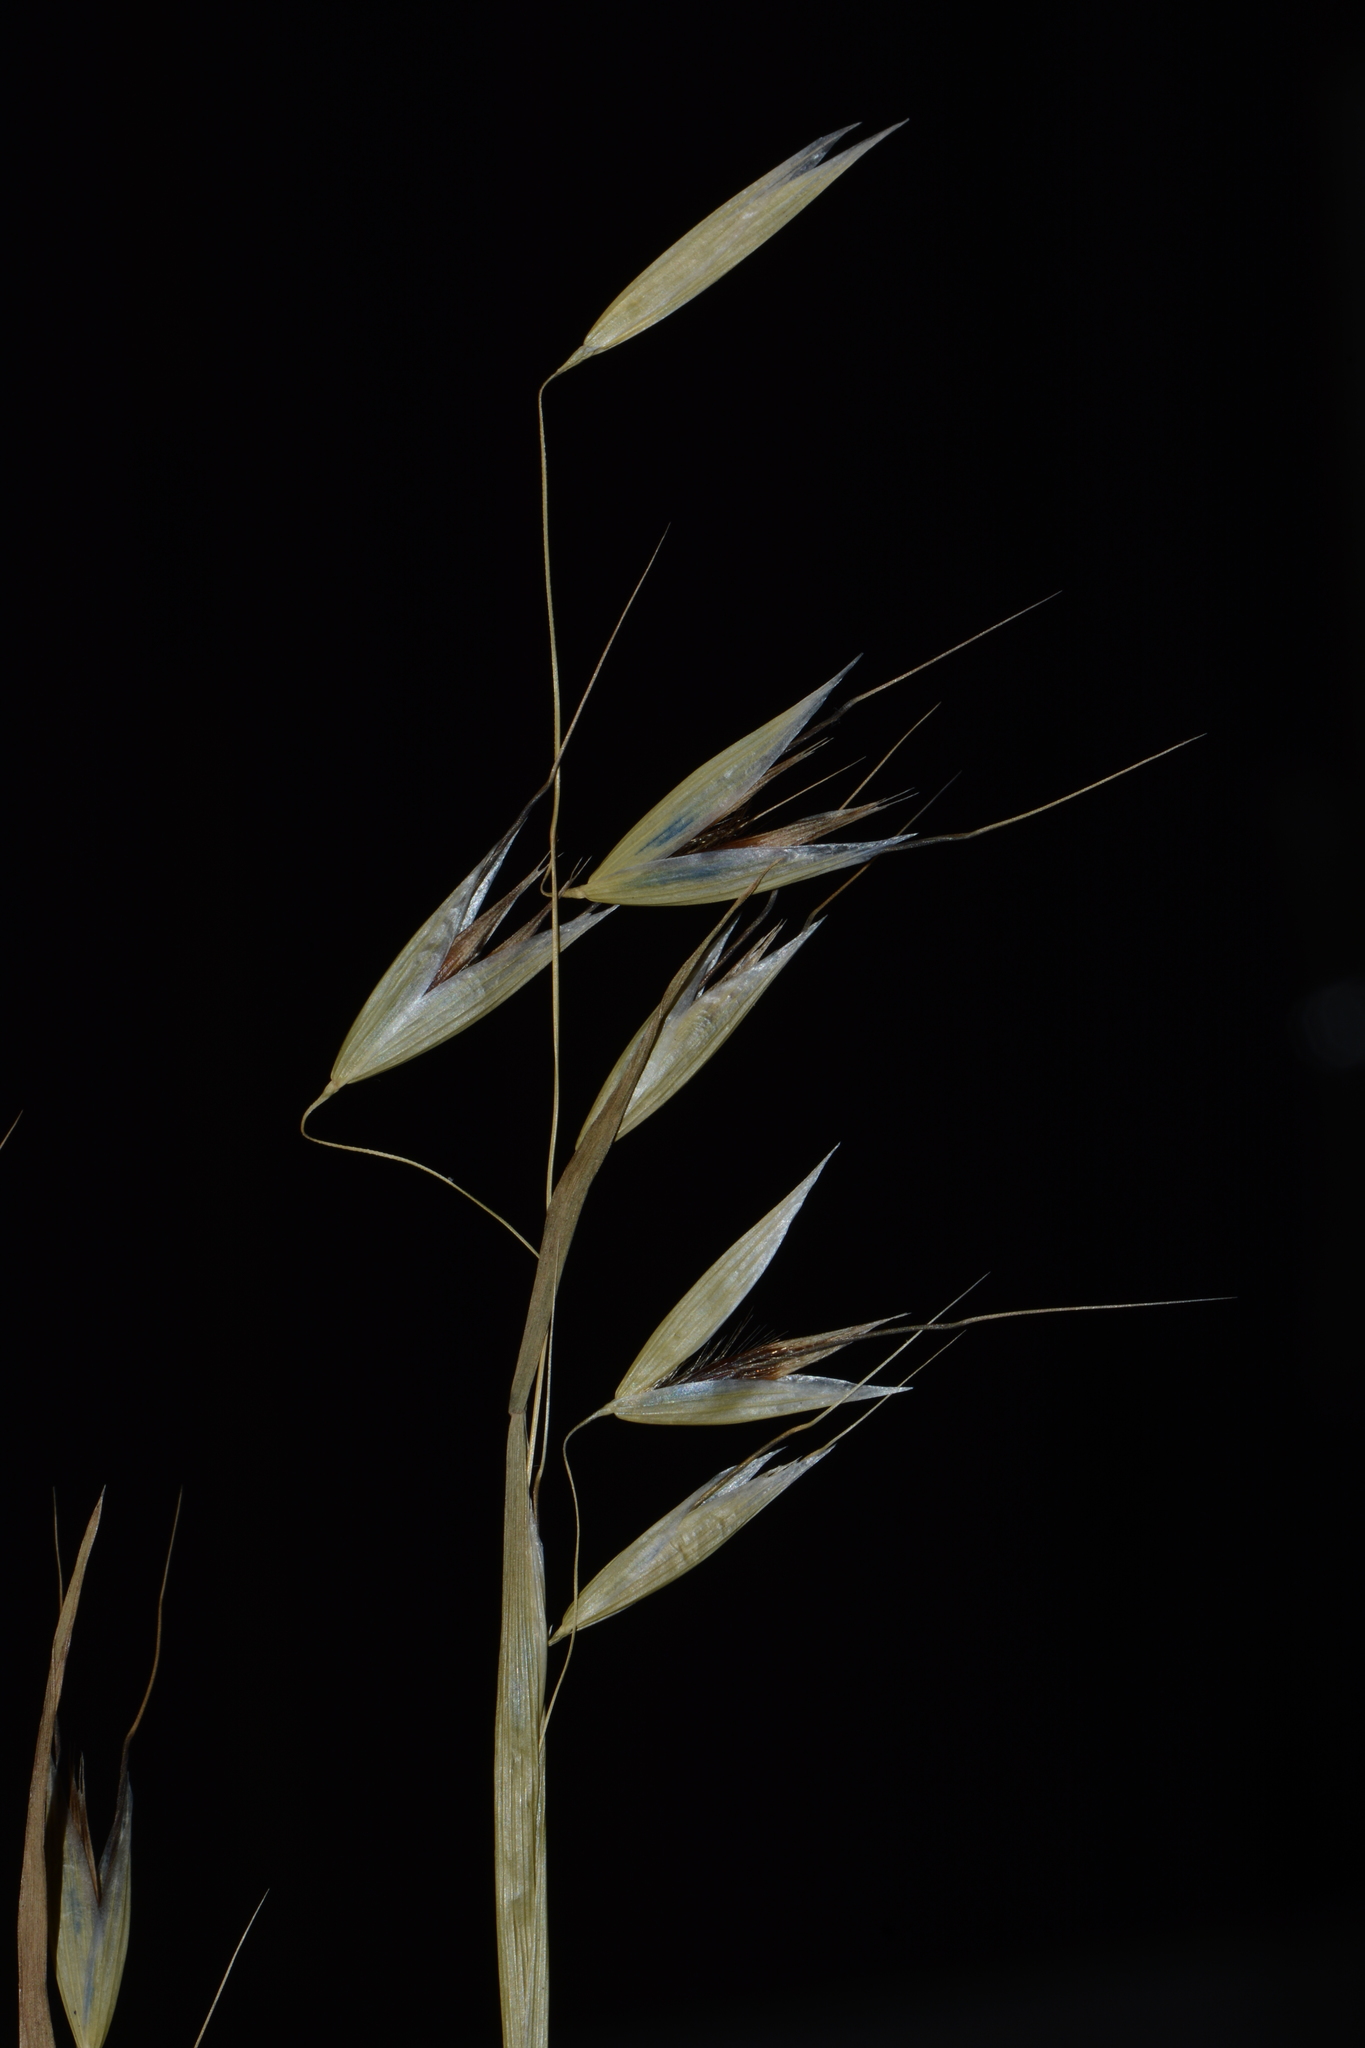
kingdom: Plantae
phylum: Tracheophyta
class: Liliopsida
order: Poales
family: Poaceae
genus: Avena
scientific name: Avena sativa
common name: Oat
